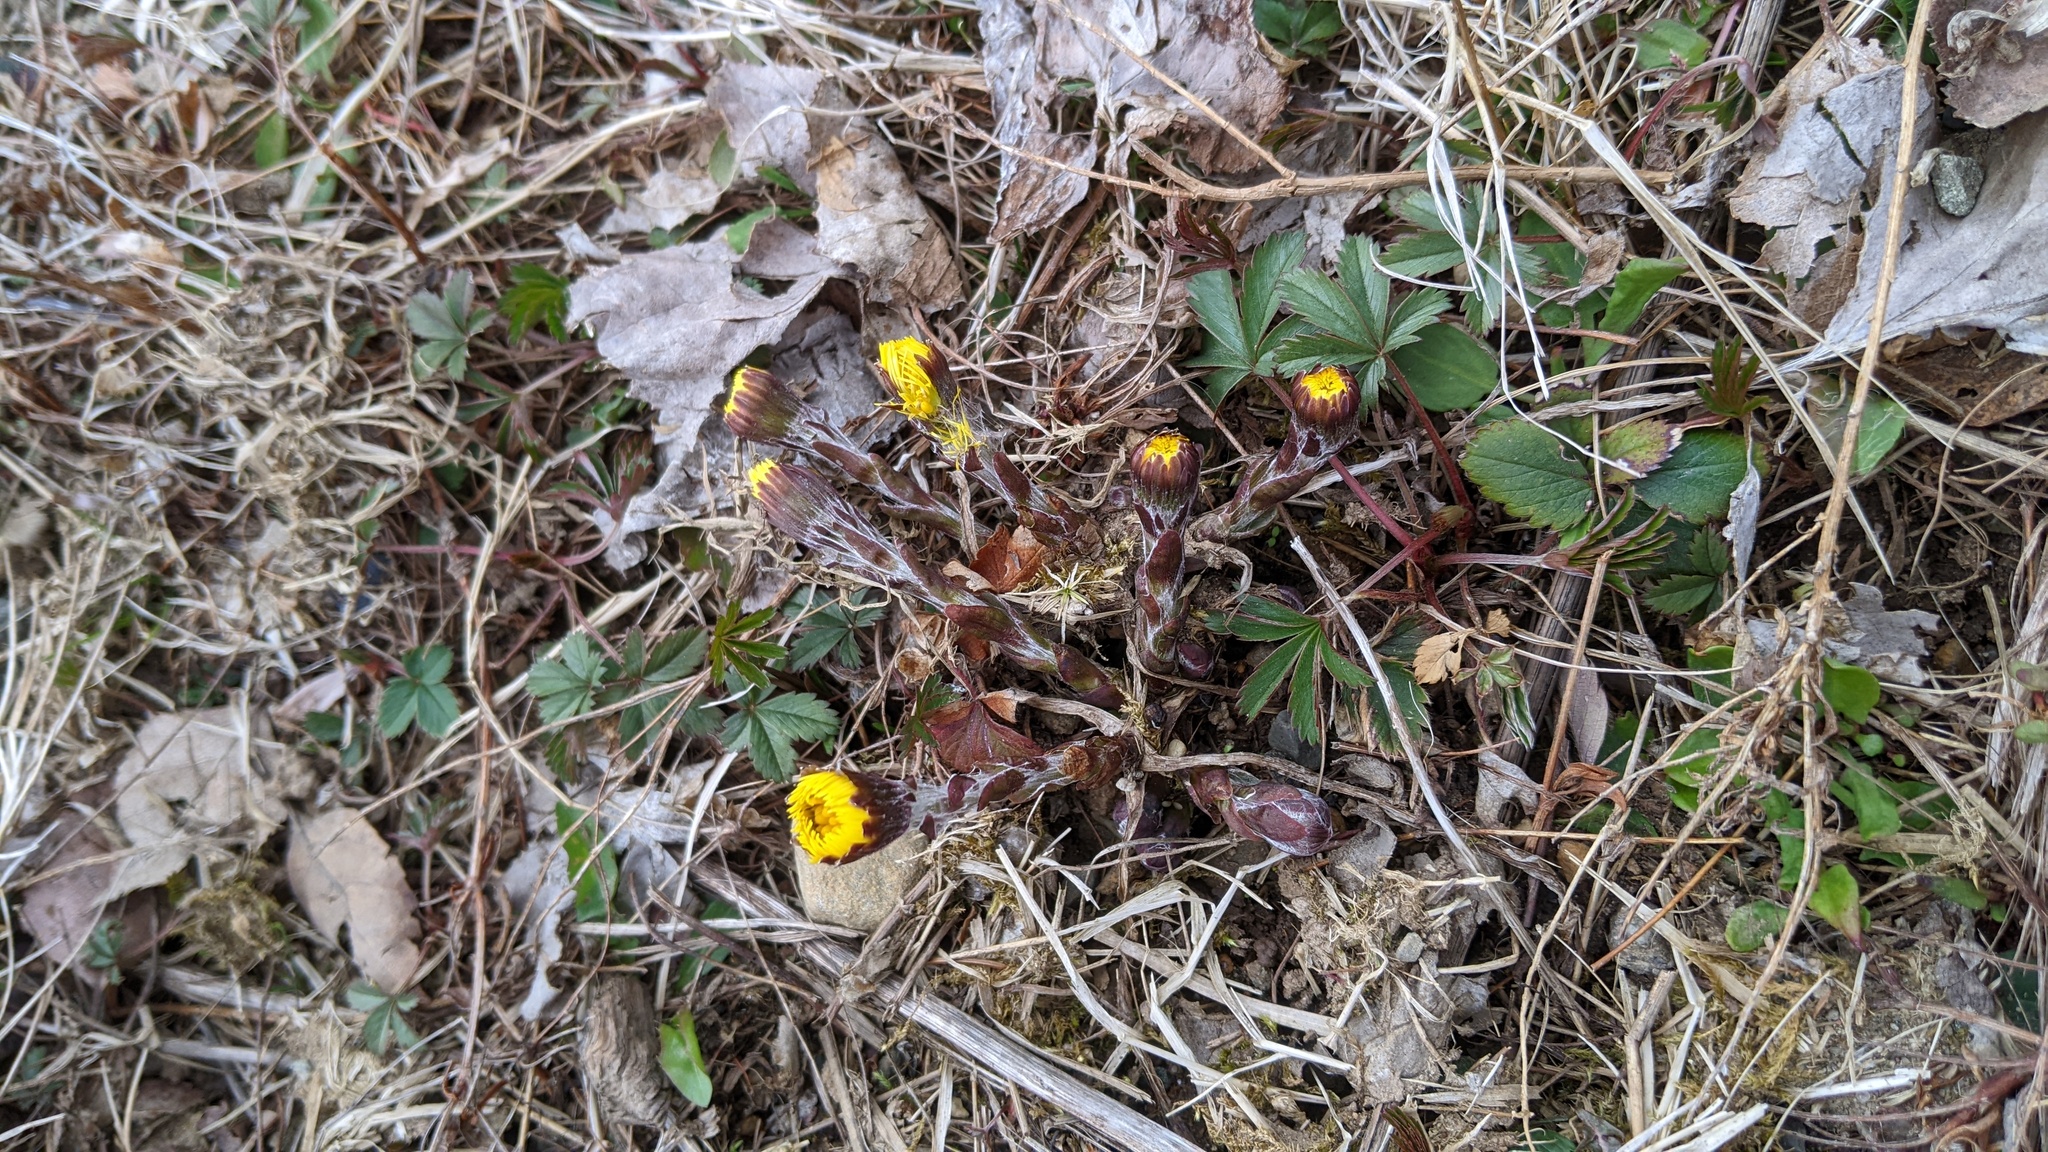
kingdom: Plantae
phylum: Tracheophyta
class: Magnoliopsida
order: Asterales
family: Asteraceae
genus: Tussilago
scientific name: Tussilago farfara
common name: Coltsfoot
